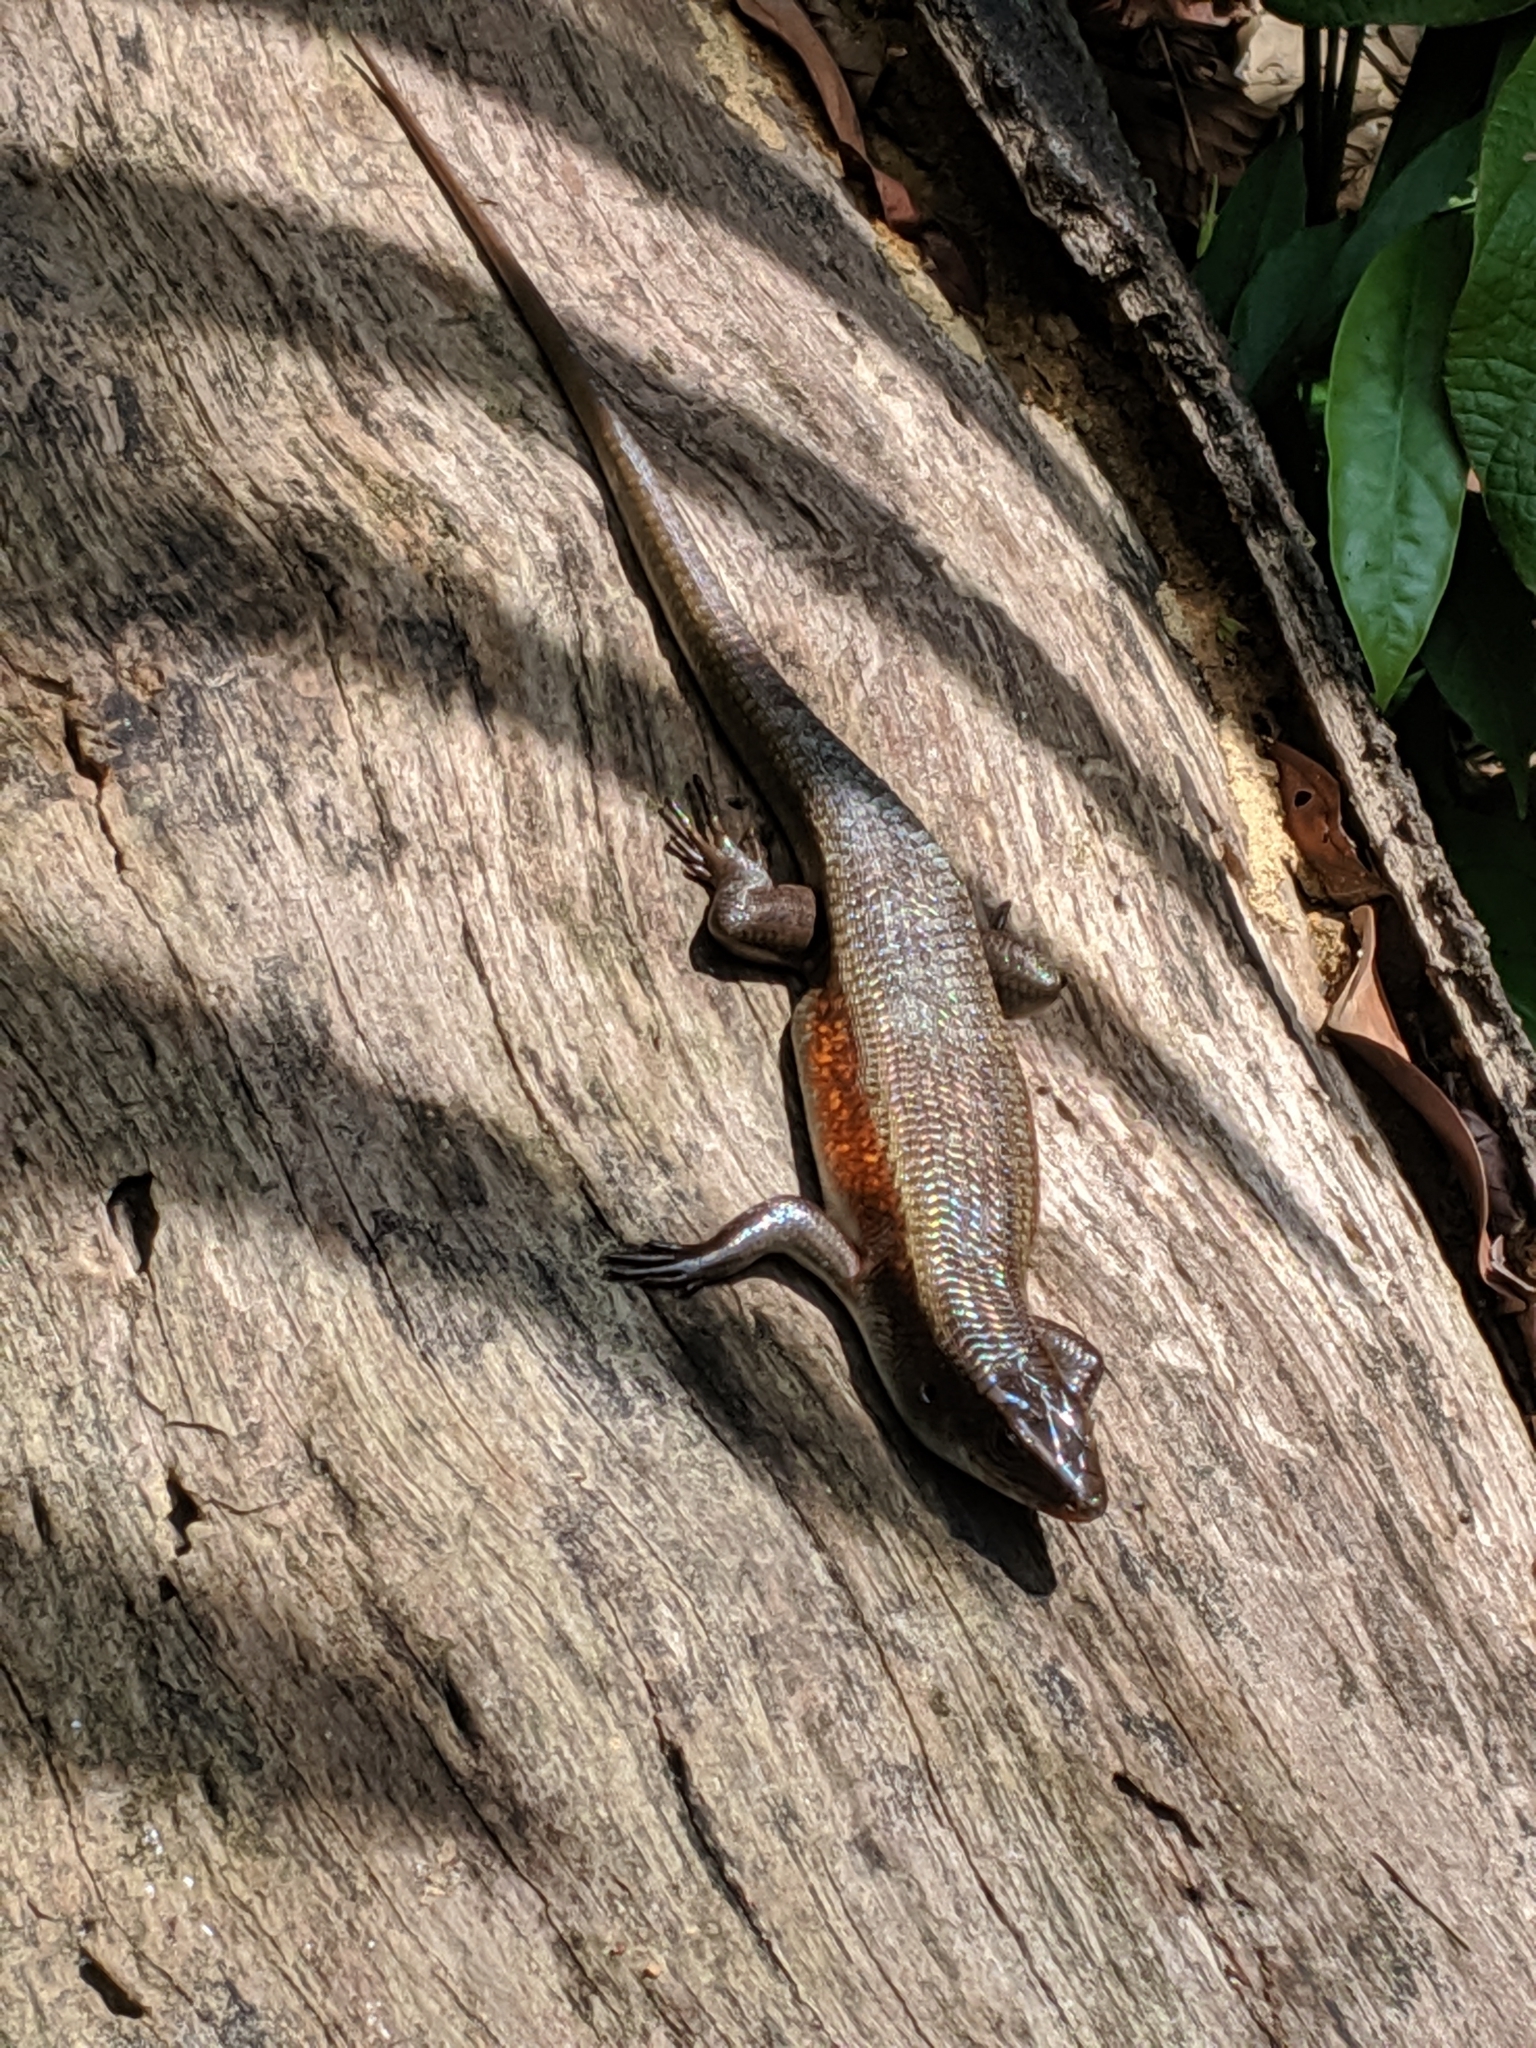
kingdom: Animalia
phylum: Chordata
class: Squamata
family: Scincidae
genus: Eutropis
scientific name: Eutropis multifasciata
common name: Common mabuya
